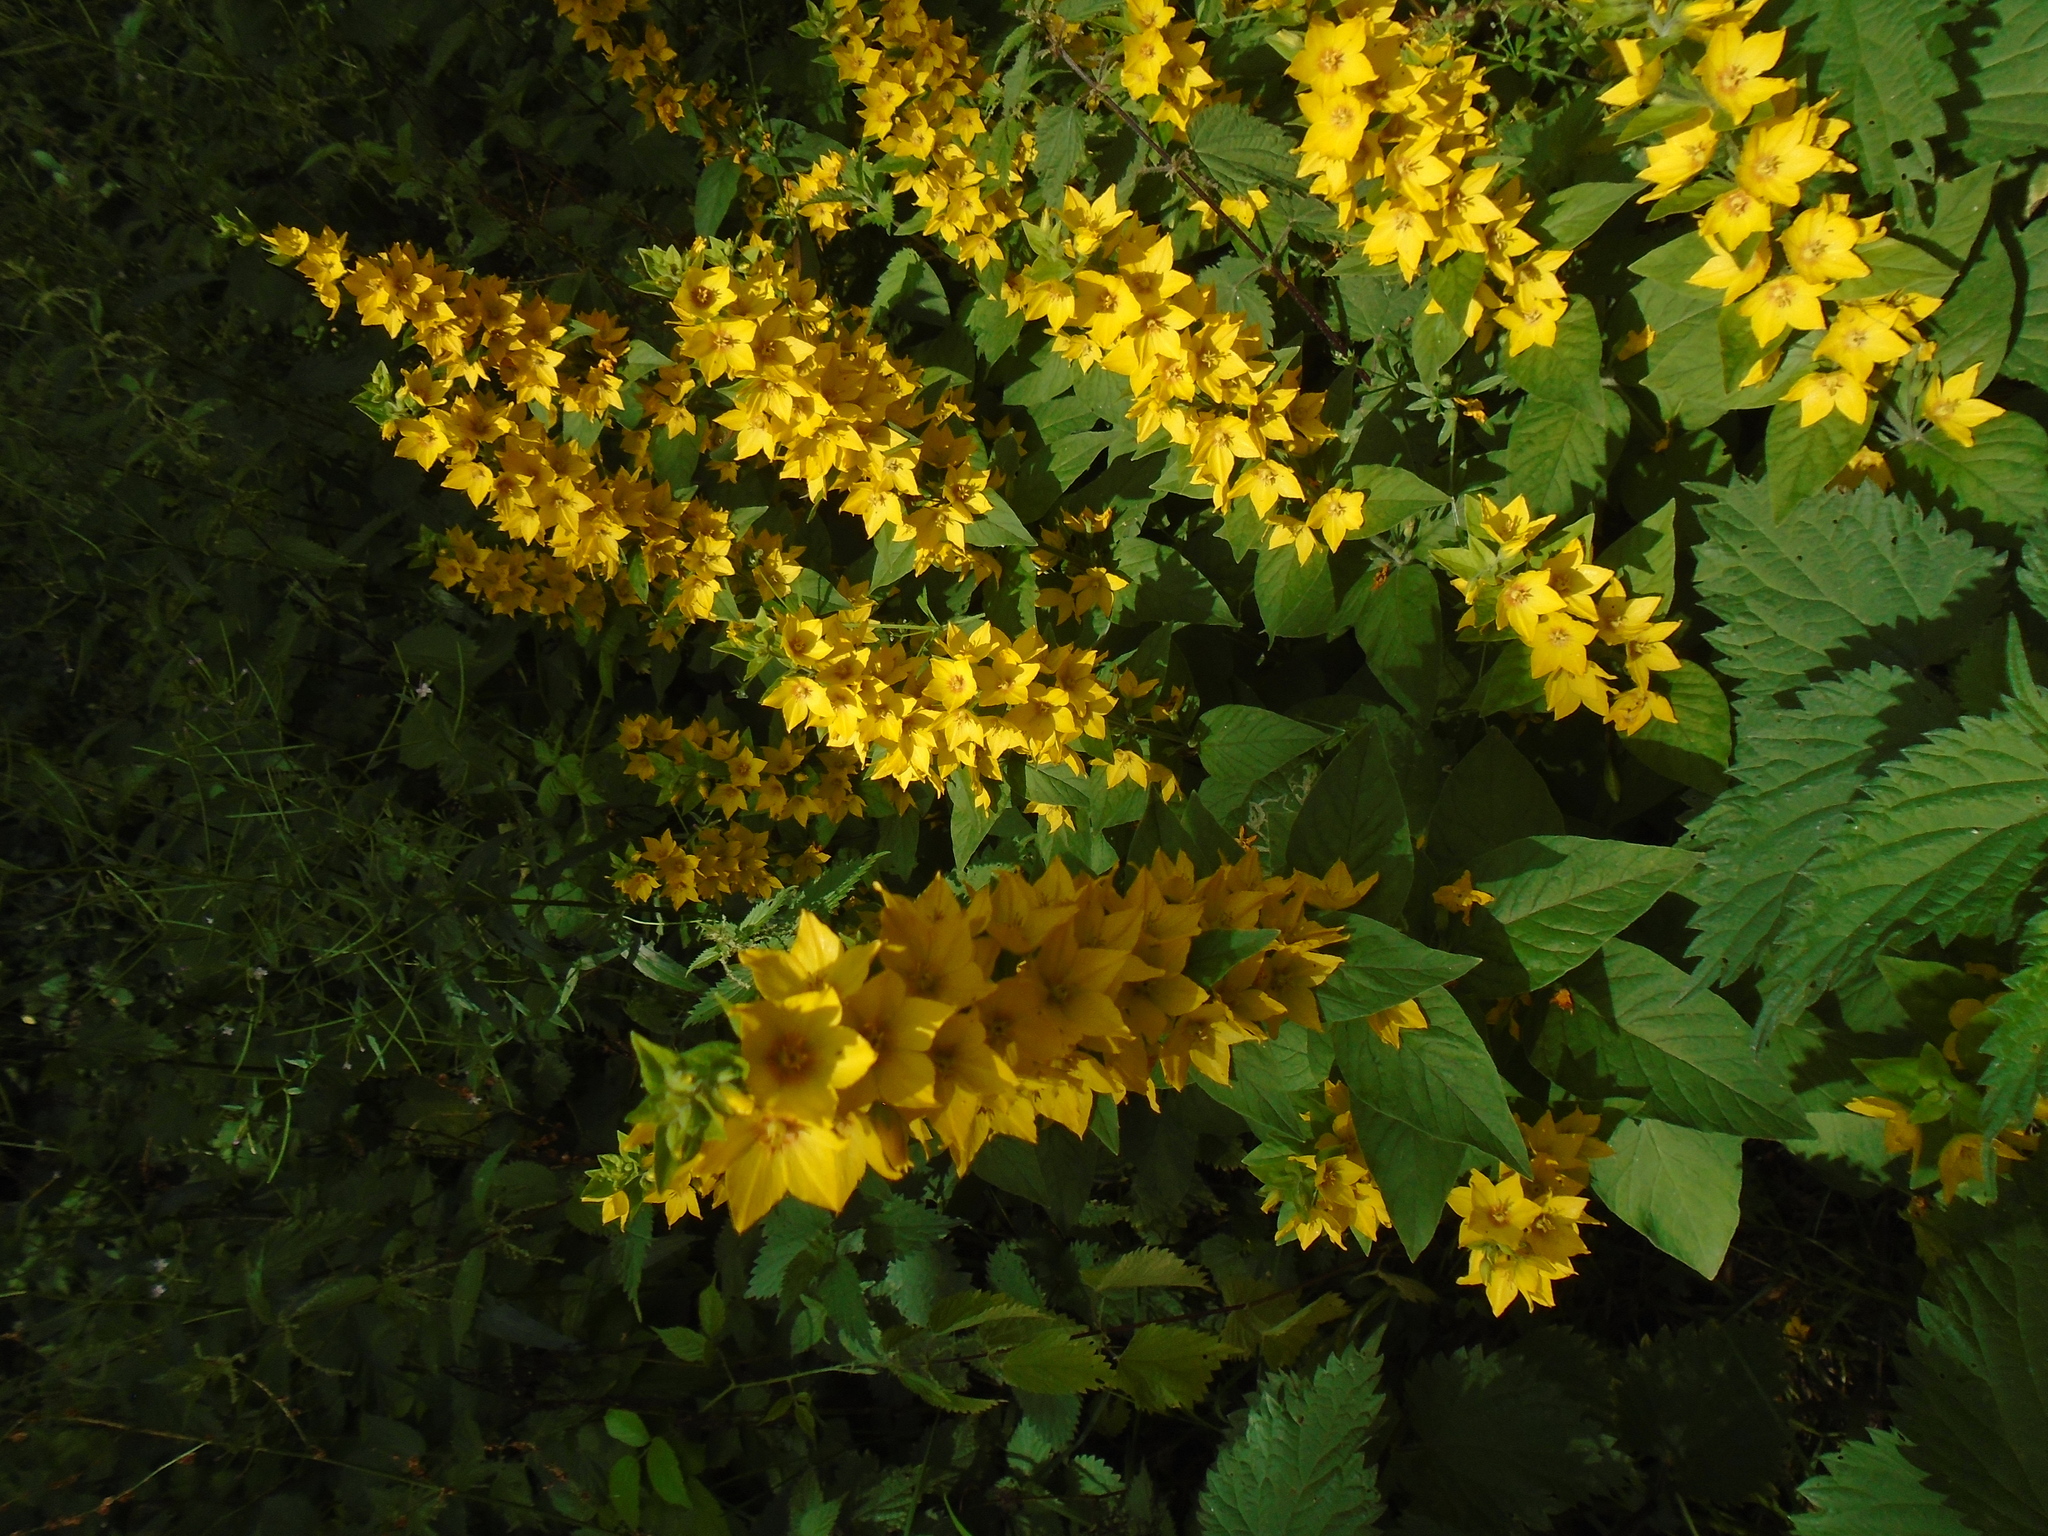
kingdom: Plantae
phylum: Tracheophyta
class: Magnoliopsida
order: Ericales
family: Primulaceae
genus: Lysimachia
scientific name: Lysimachia vulgaris
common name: Yellow loosestrife
